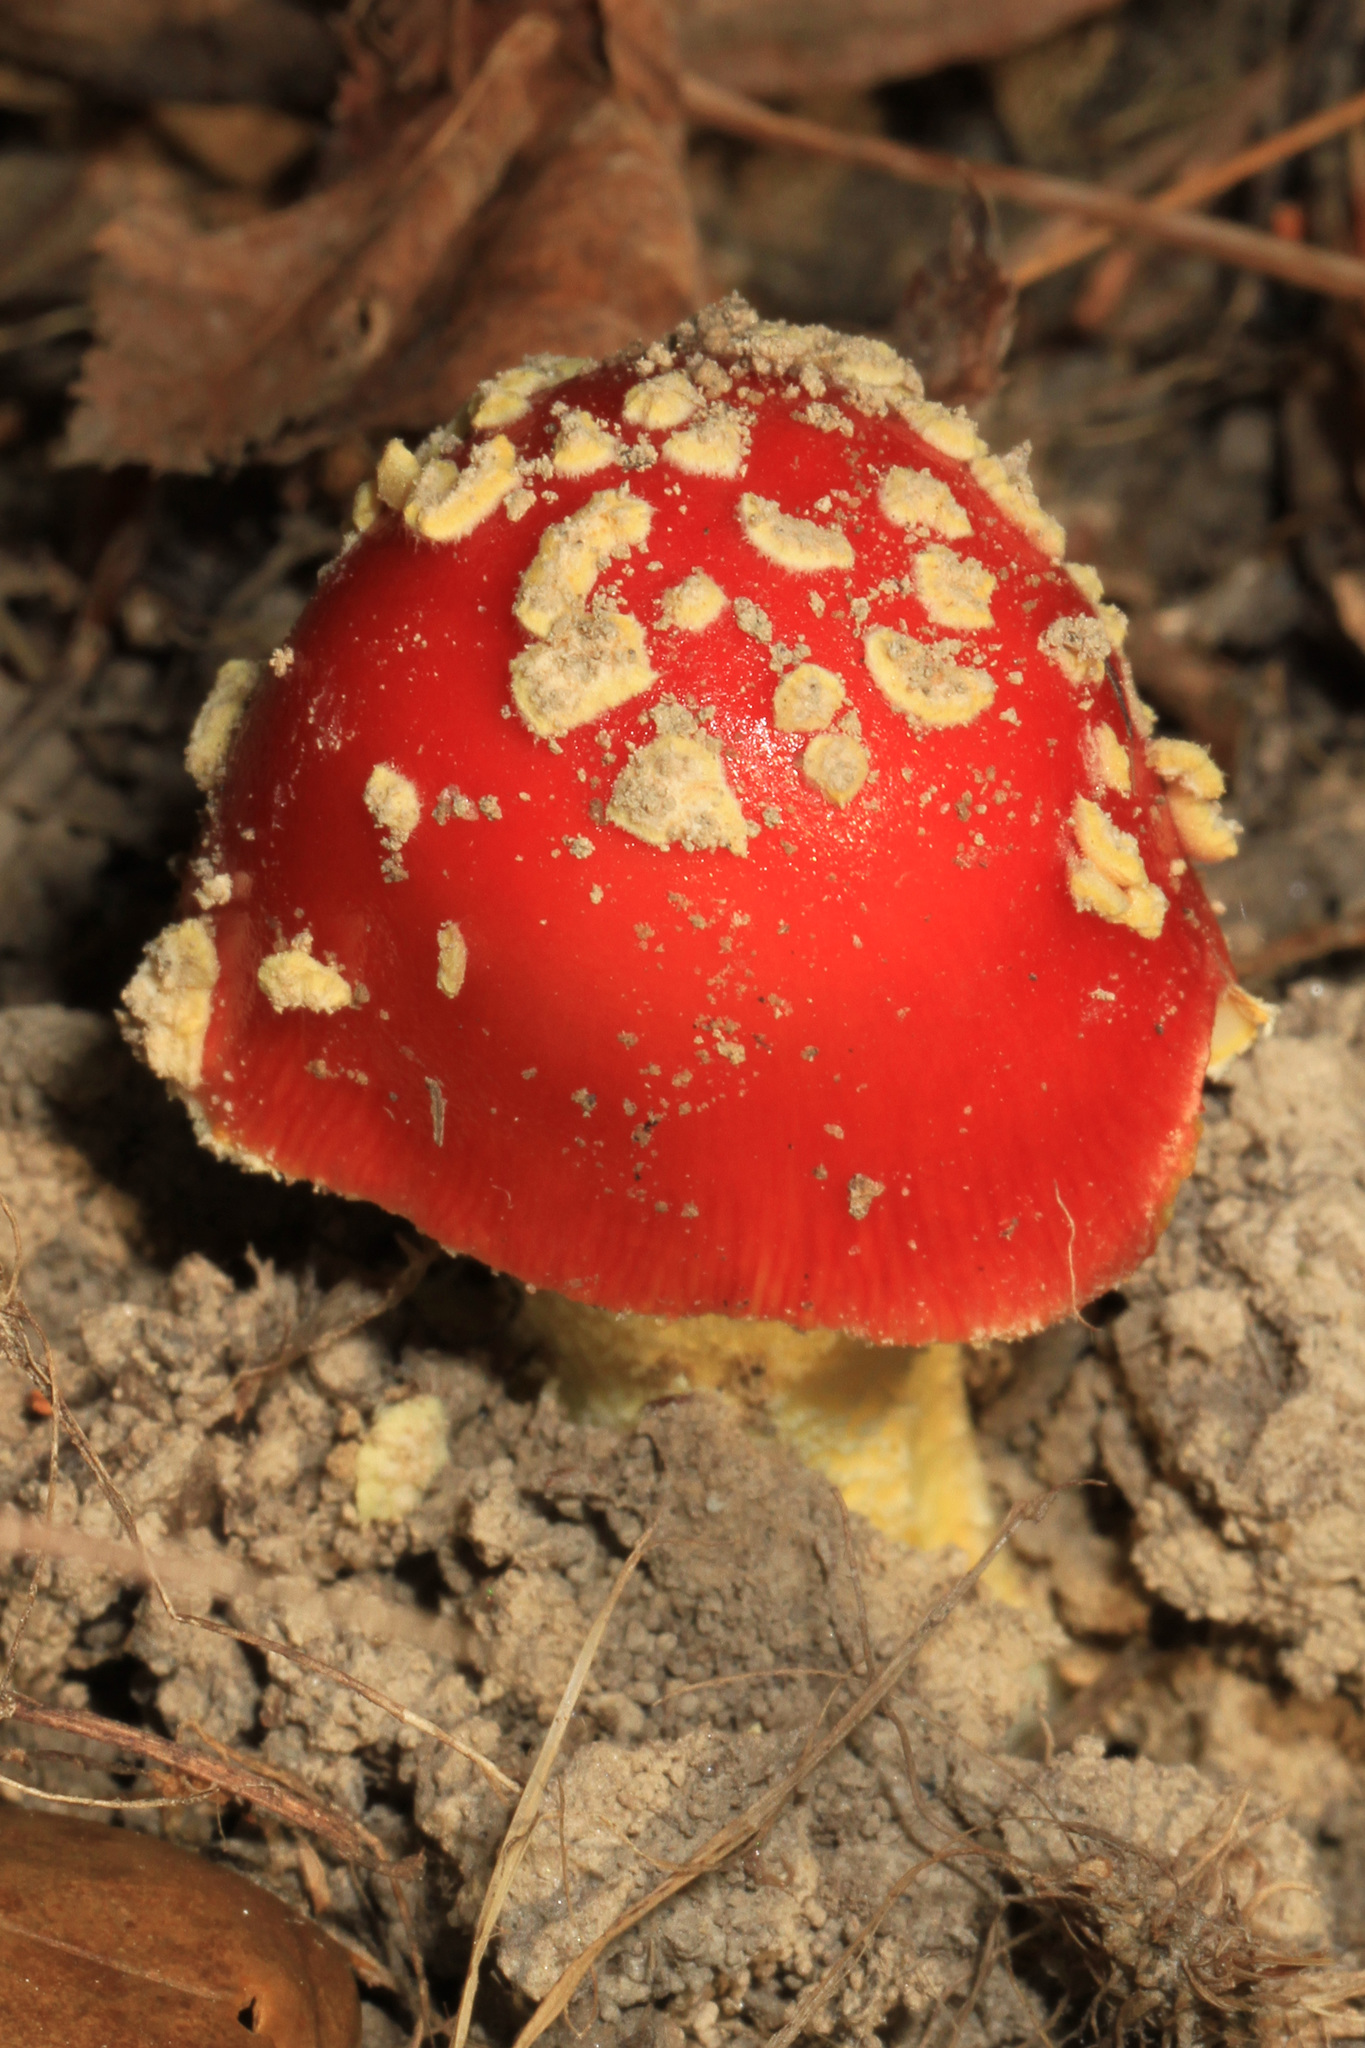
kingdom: Fungi
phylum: Basidiomycota
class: Agaricomycetes
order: Agaricales
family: Amanitaceae
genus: Amanita
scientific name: Amanita parcivolvata
